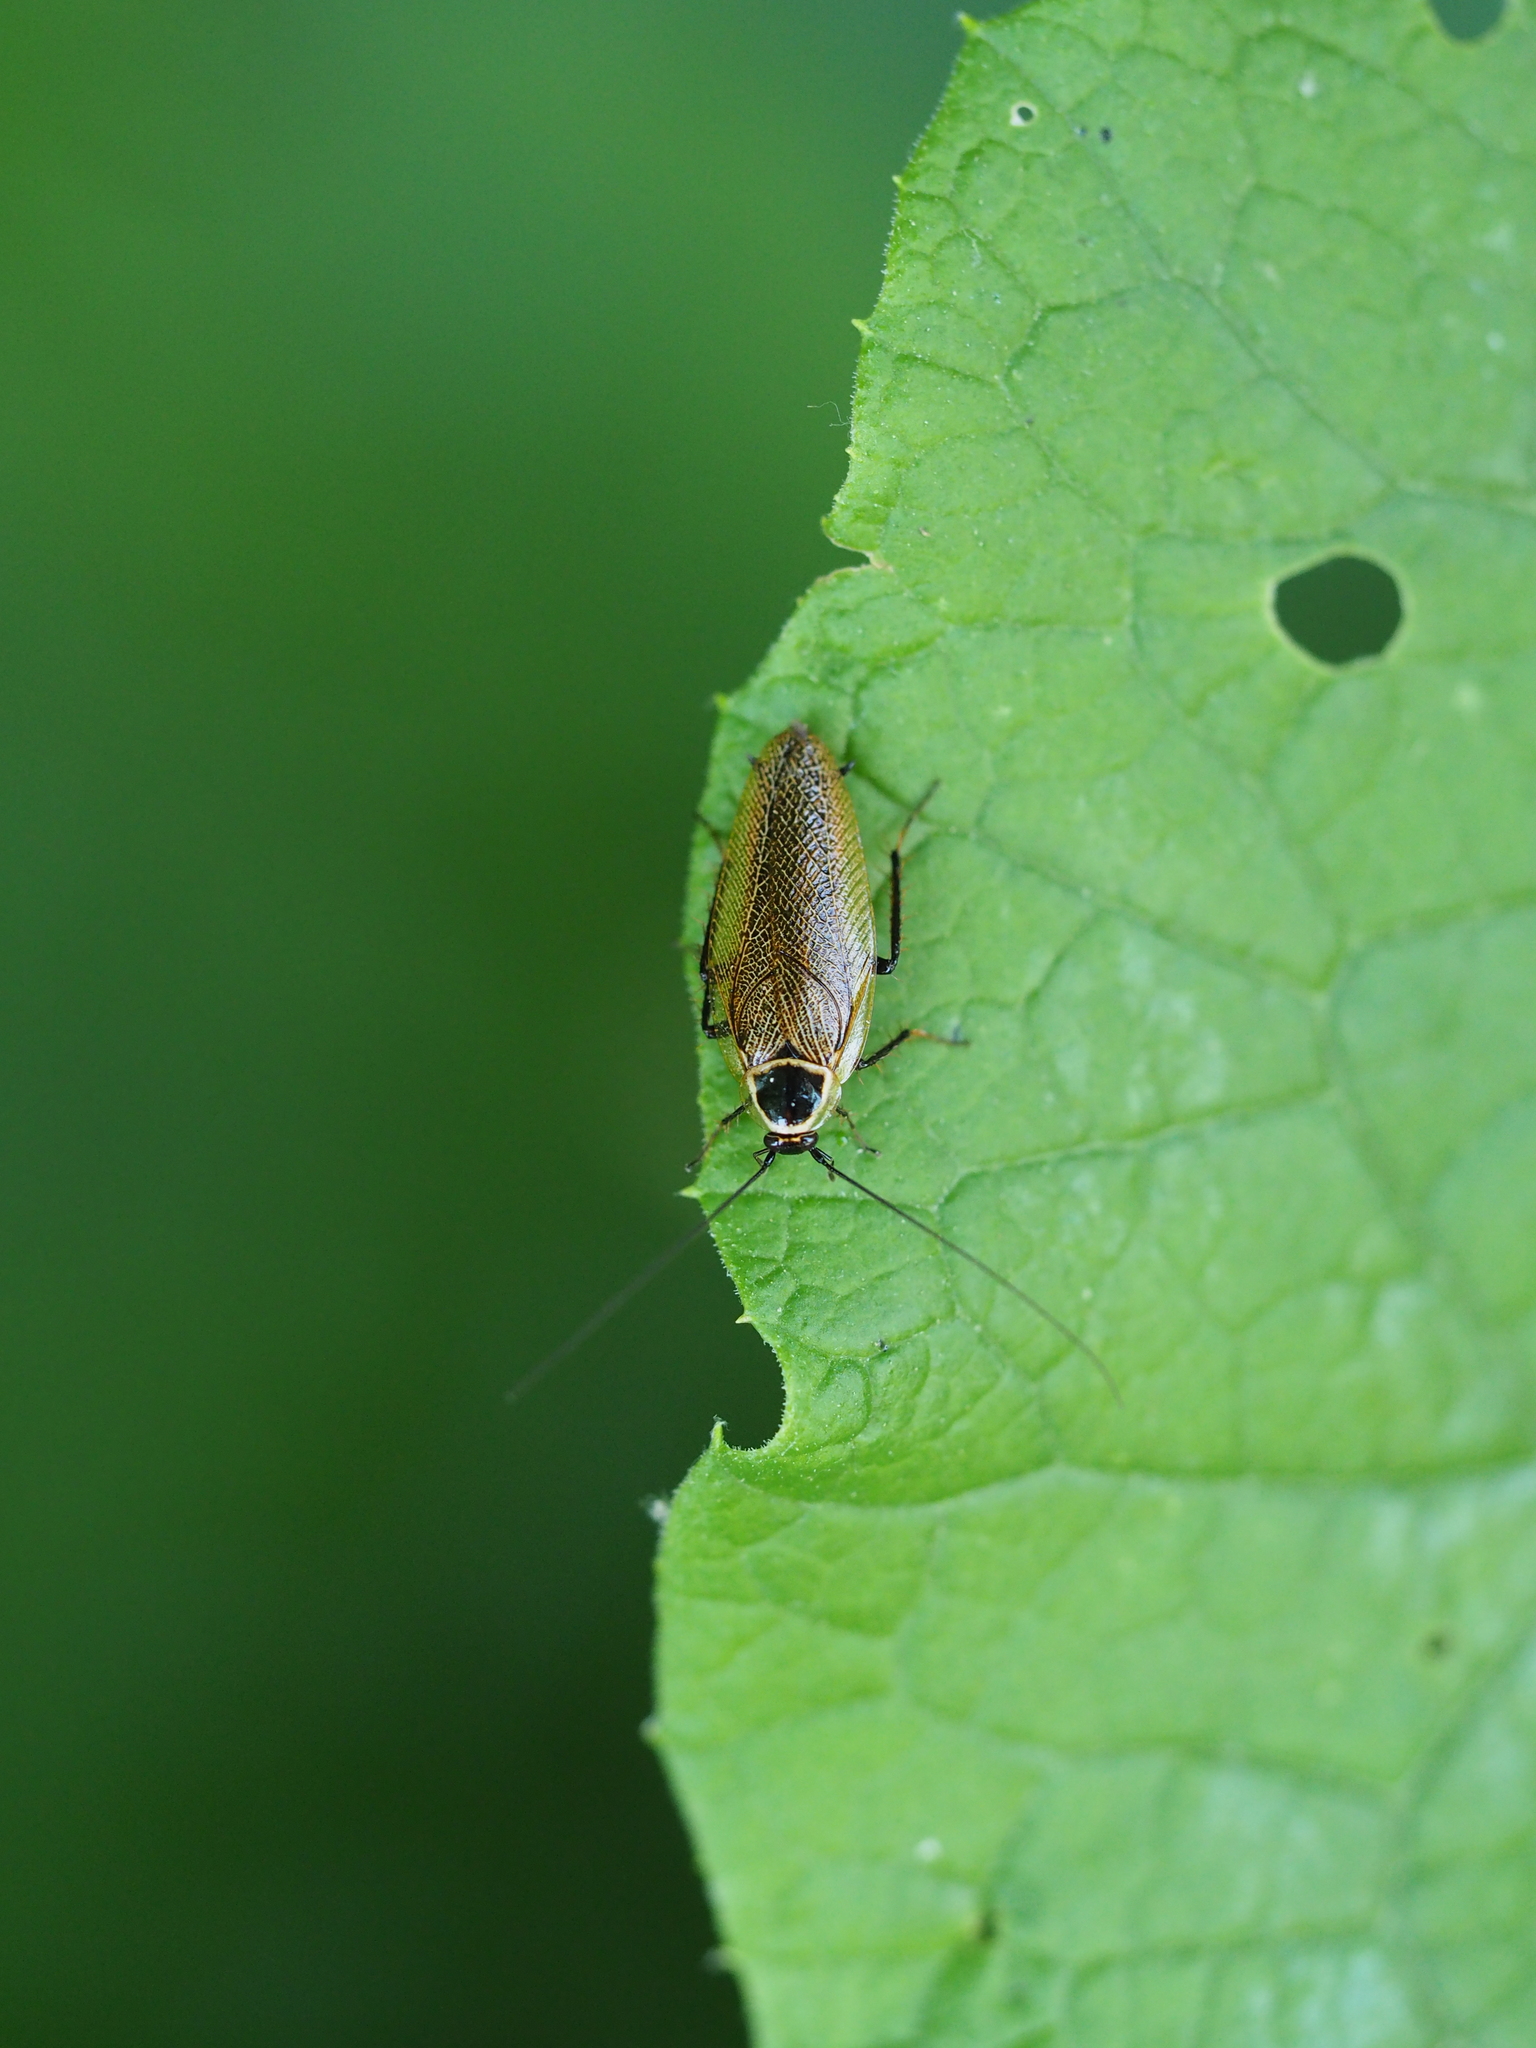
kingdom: Animalia
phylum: Arthropoda
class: Insecta
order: Blattodea
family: Ectobiidae
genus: Ectobius
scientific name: Ectobius lapponicus
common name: Dusky cockroach
